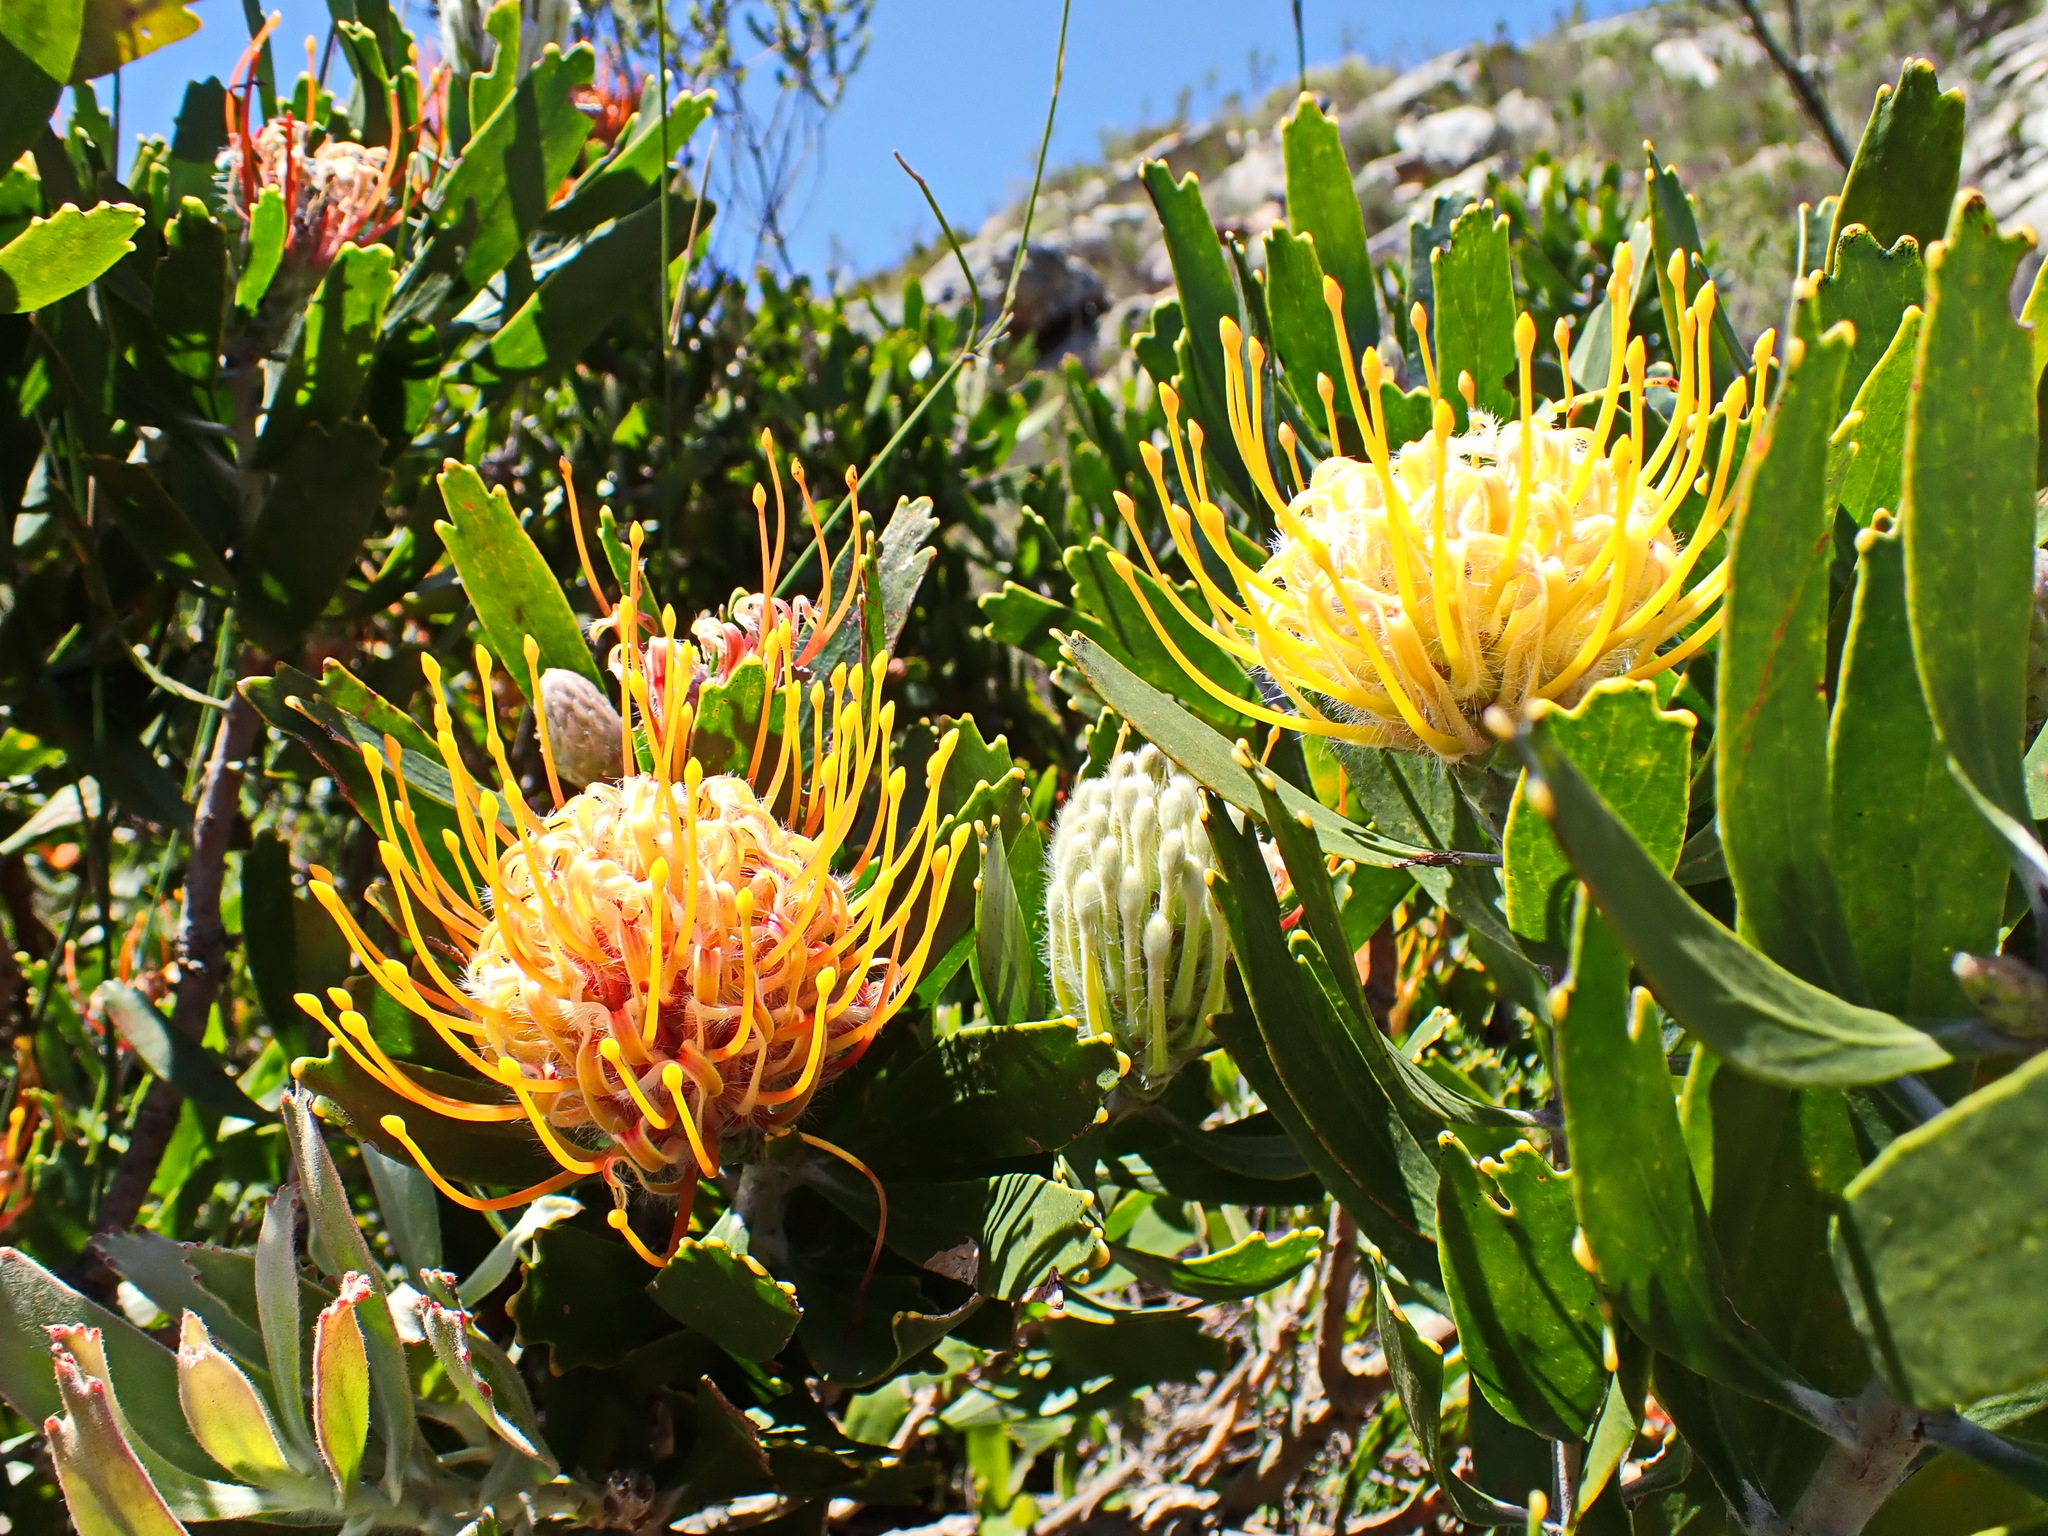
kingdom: Plantae
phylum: Tracheophyta
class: Magnoliopsida
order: Proteales
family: Proteaceae
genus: Leucospermum
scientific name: Leucospermum cuneiforme
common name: Common pincushion
